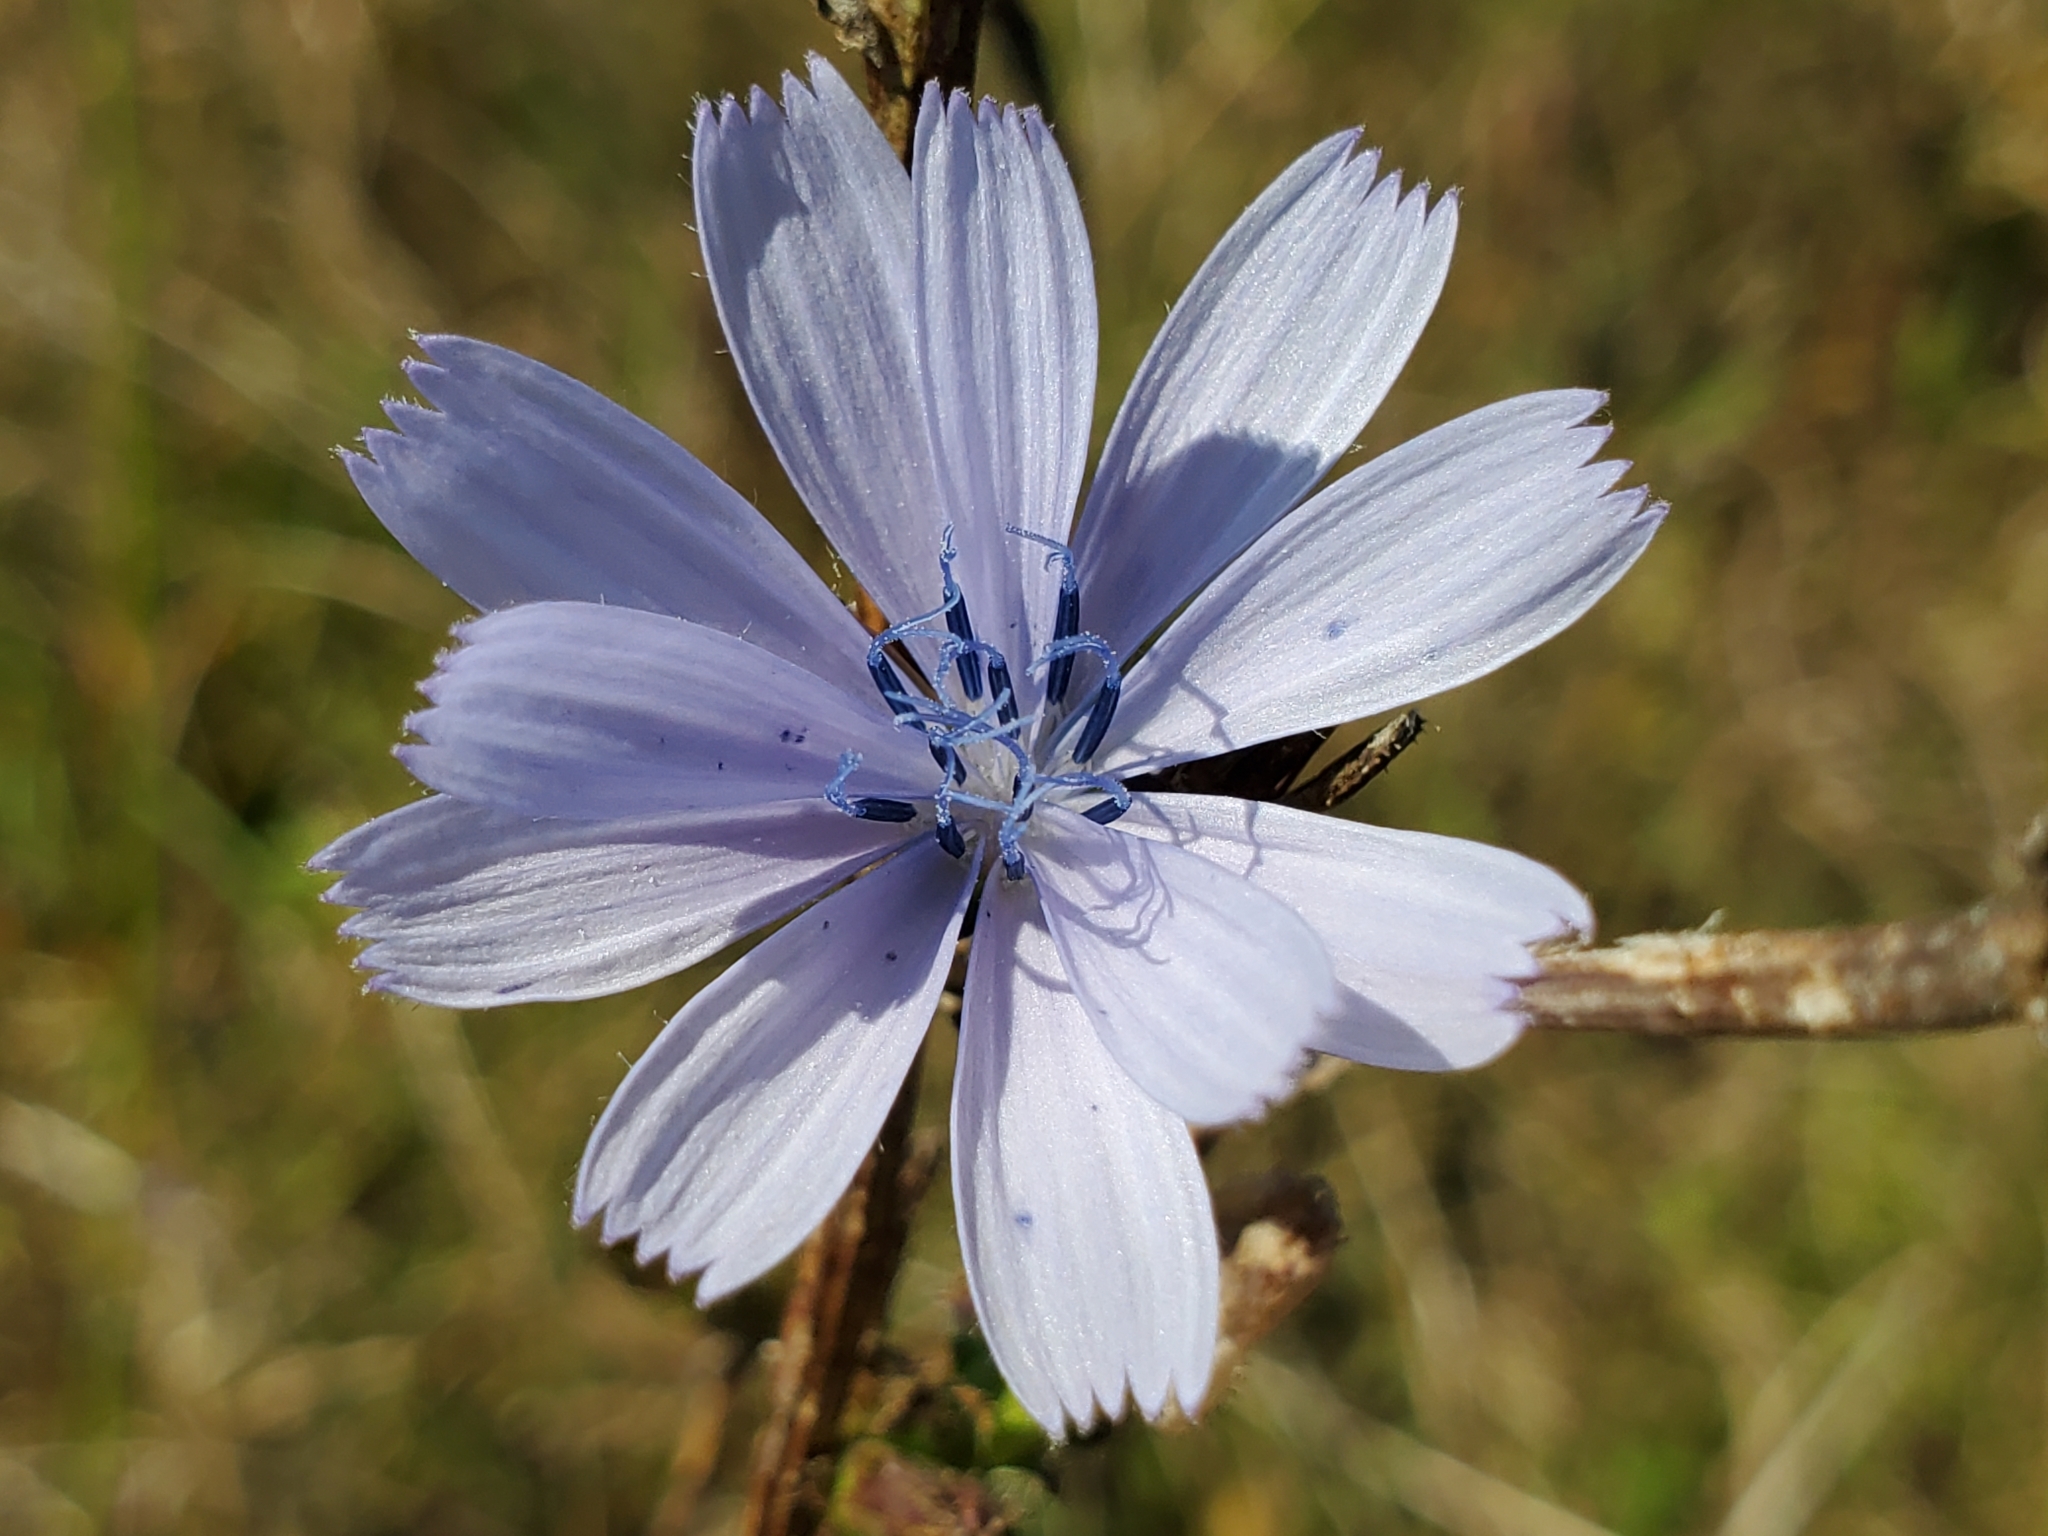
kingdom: Plantae
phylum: Tracheophyta
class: Magnoliopsida
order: Asterales
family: Asteraceae
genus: Cichorium
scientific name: Cichorium intybus
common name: Chicory
